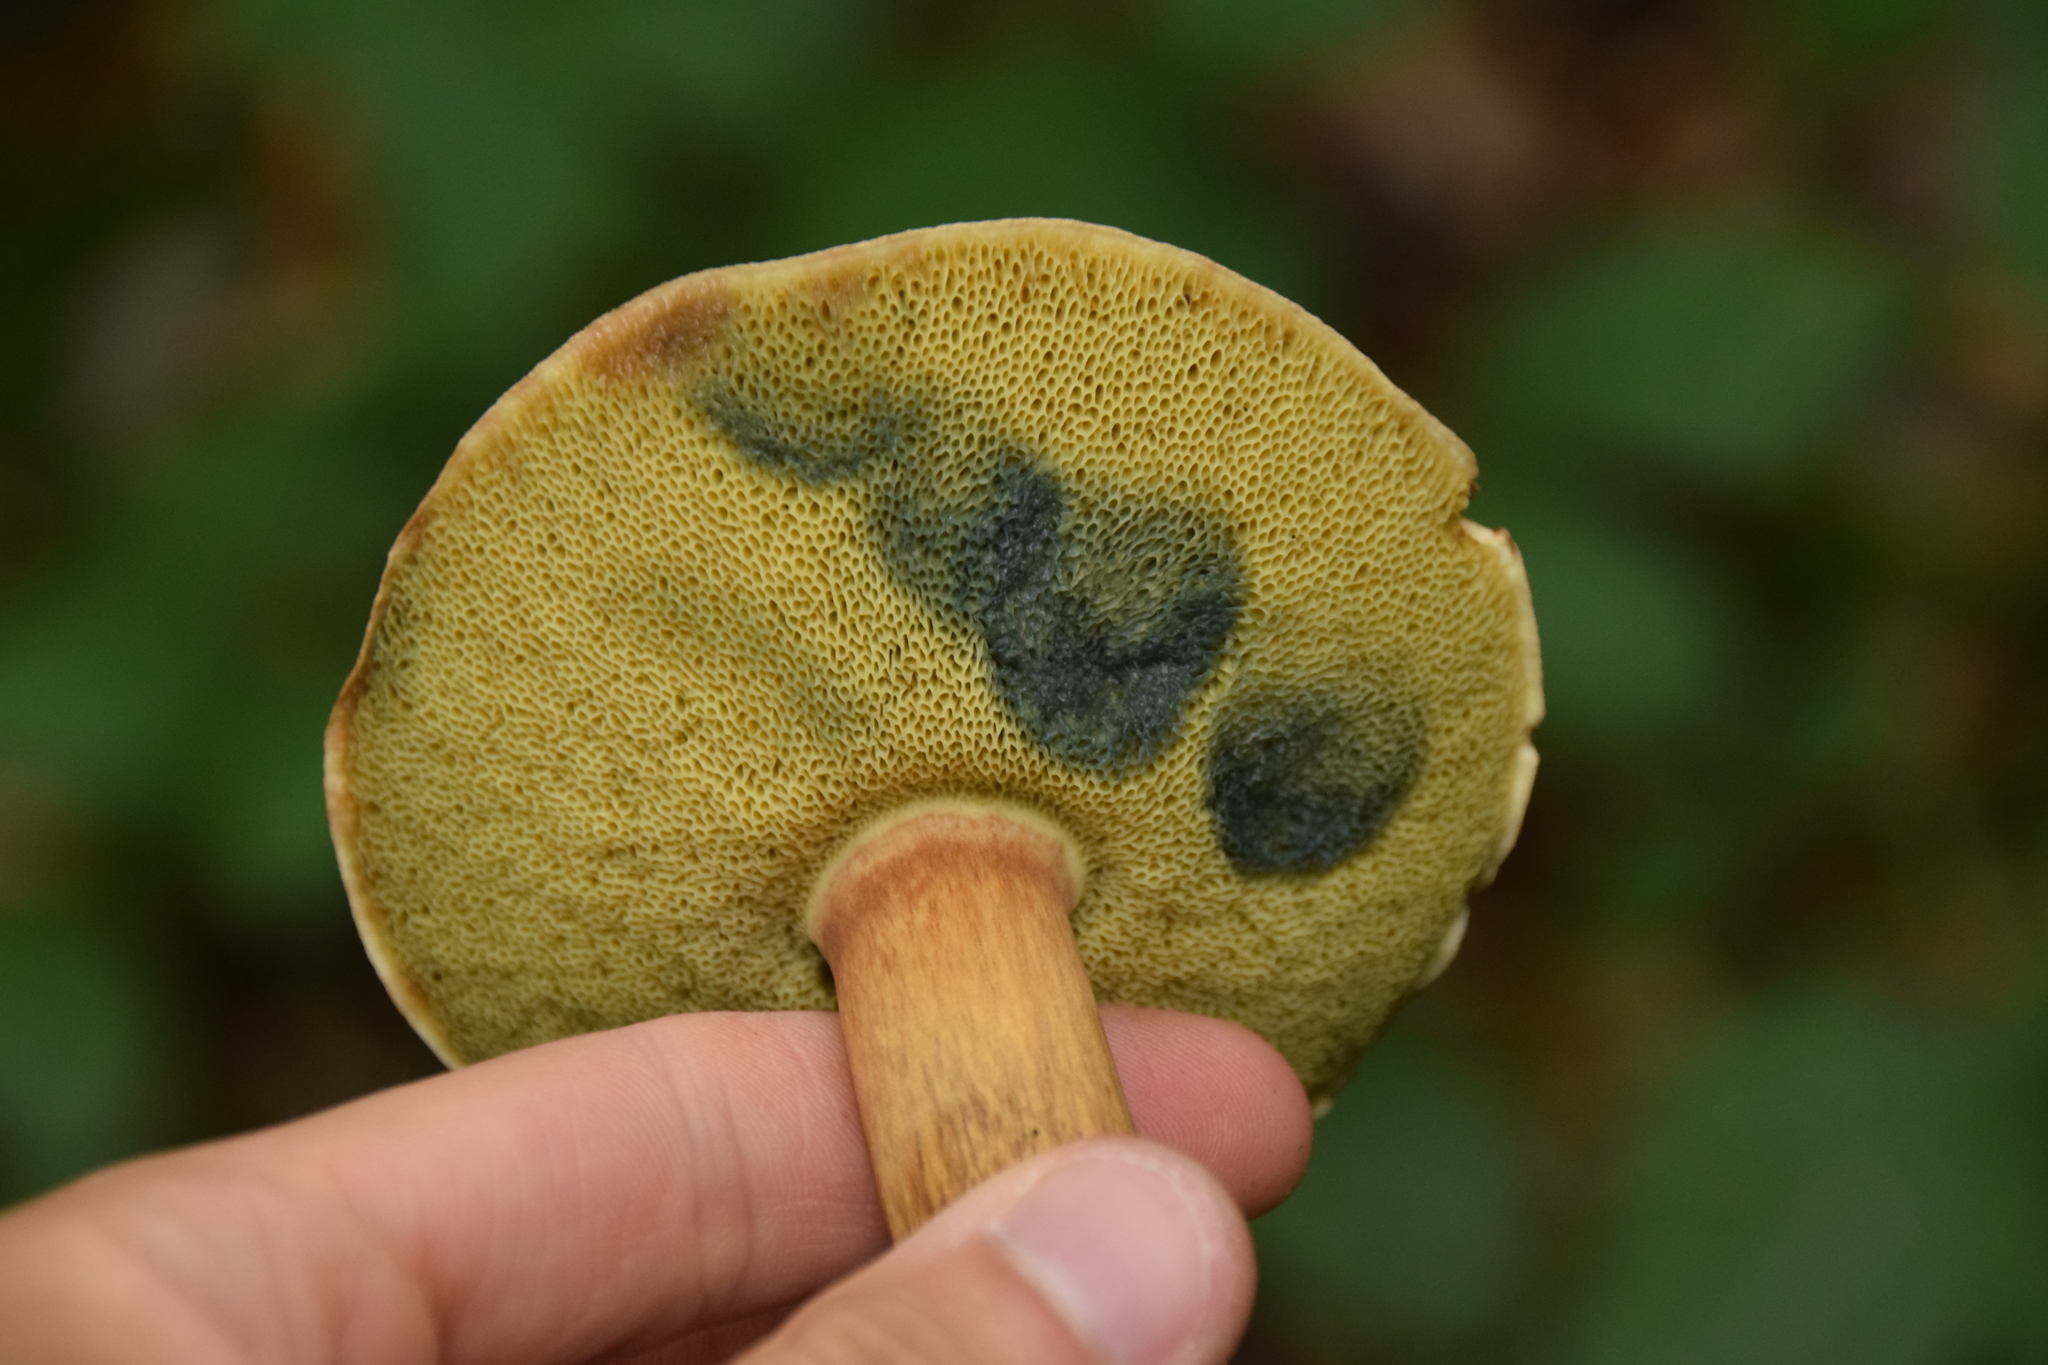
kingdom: Fungi
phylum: Basidiomycota
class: Agaricomycetes
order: Boletales
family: Boletaceae
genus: Imleria
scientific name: Imleria badia
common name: Bay bolete
